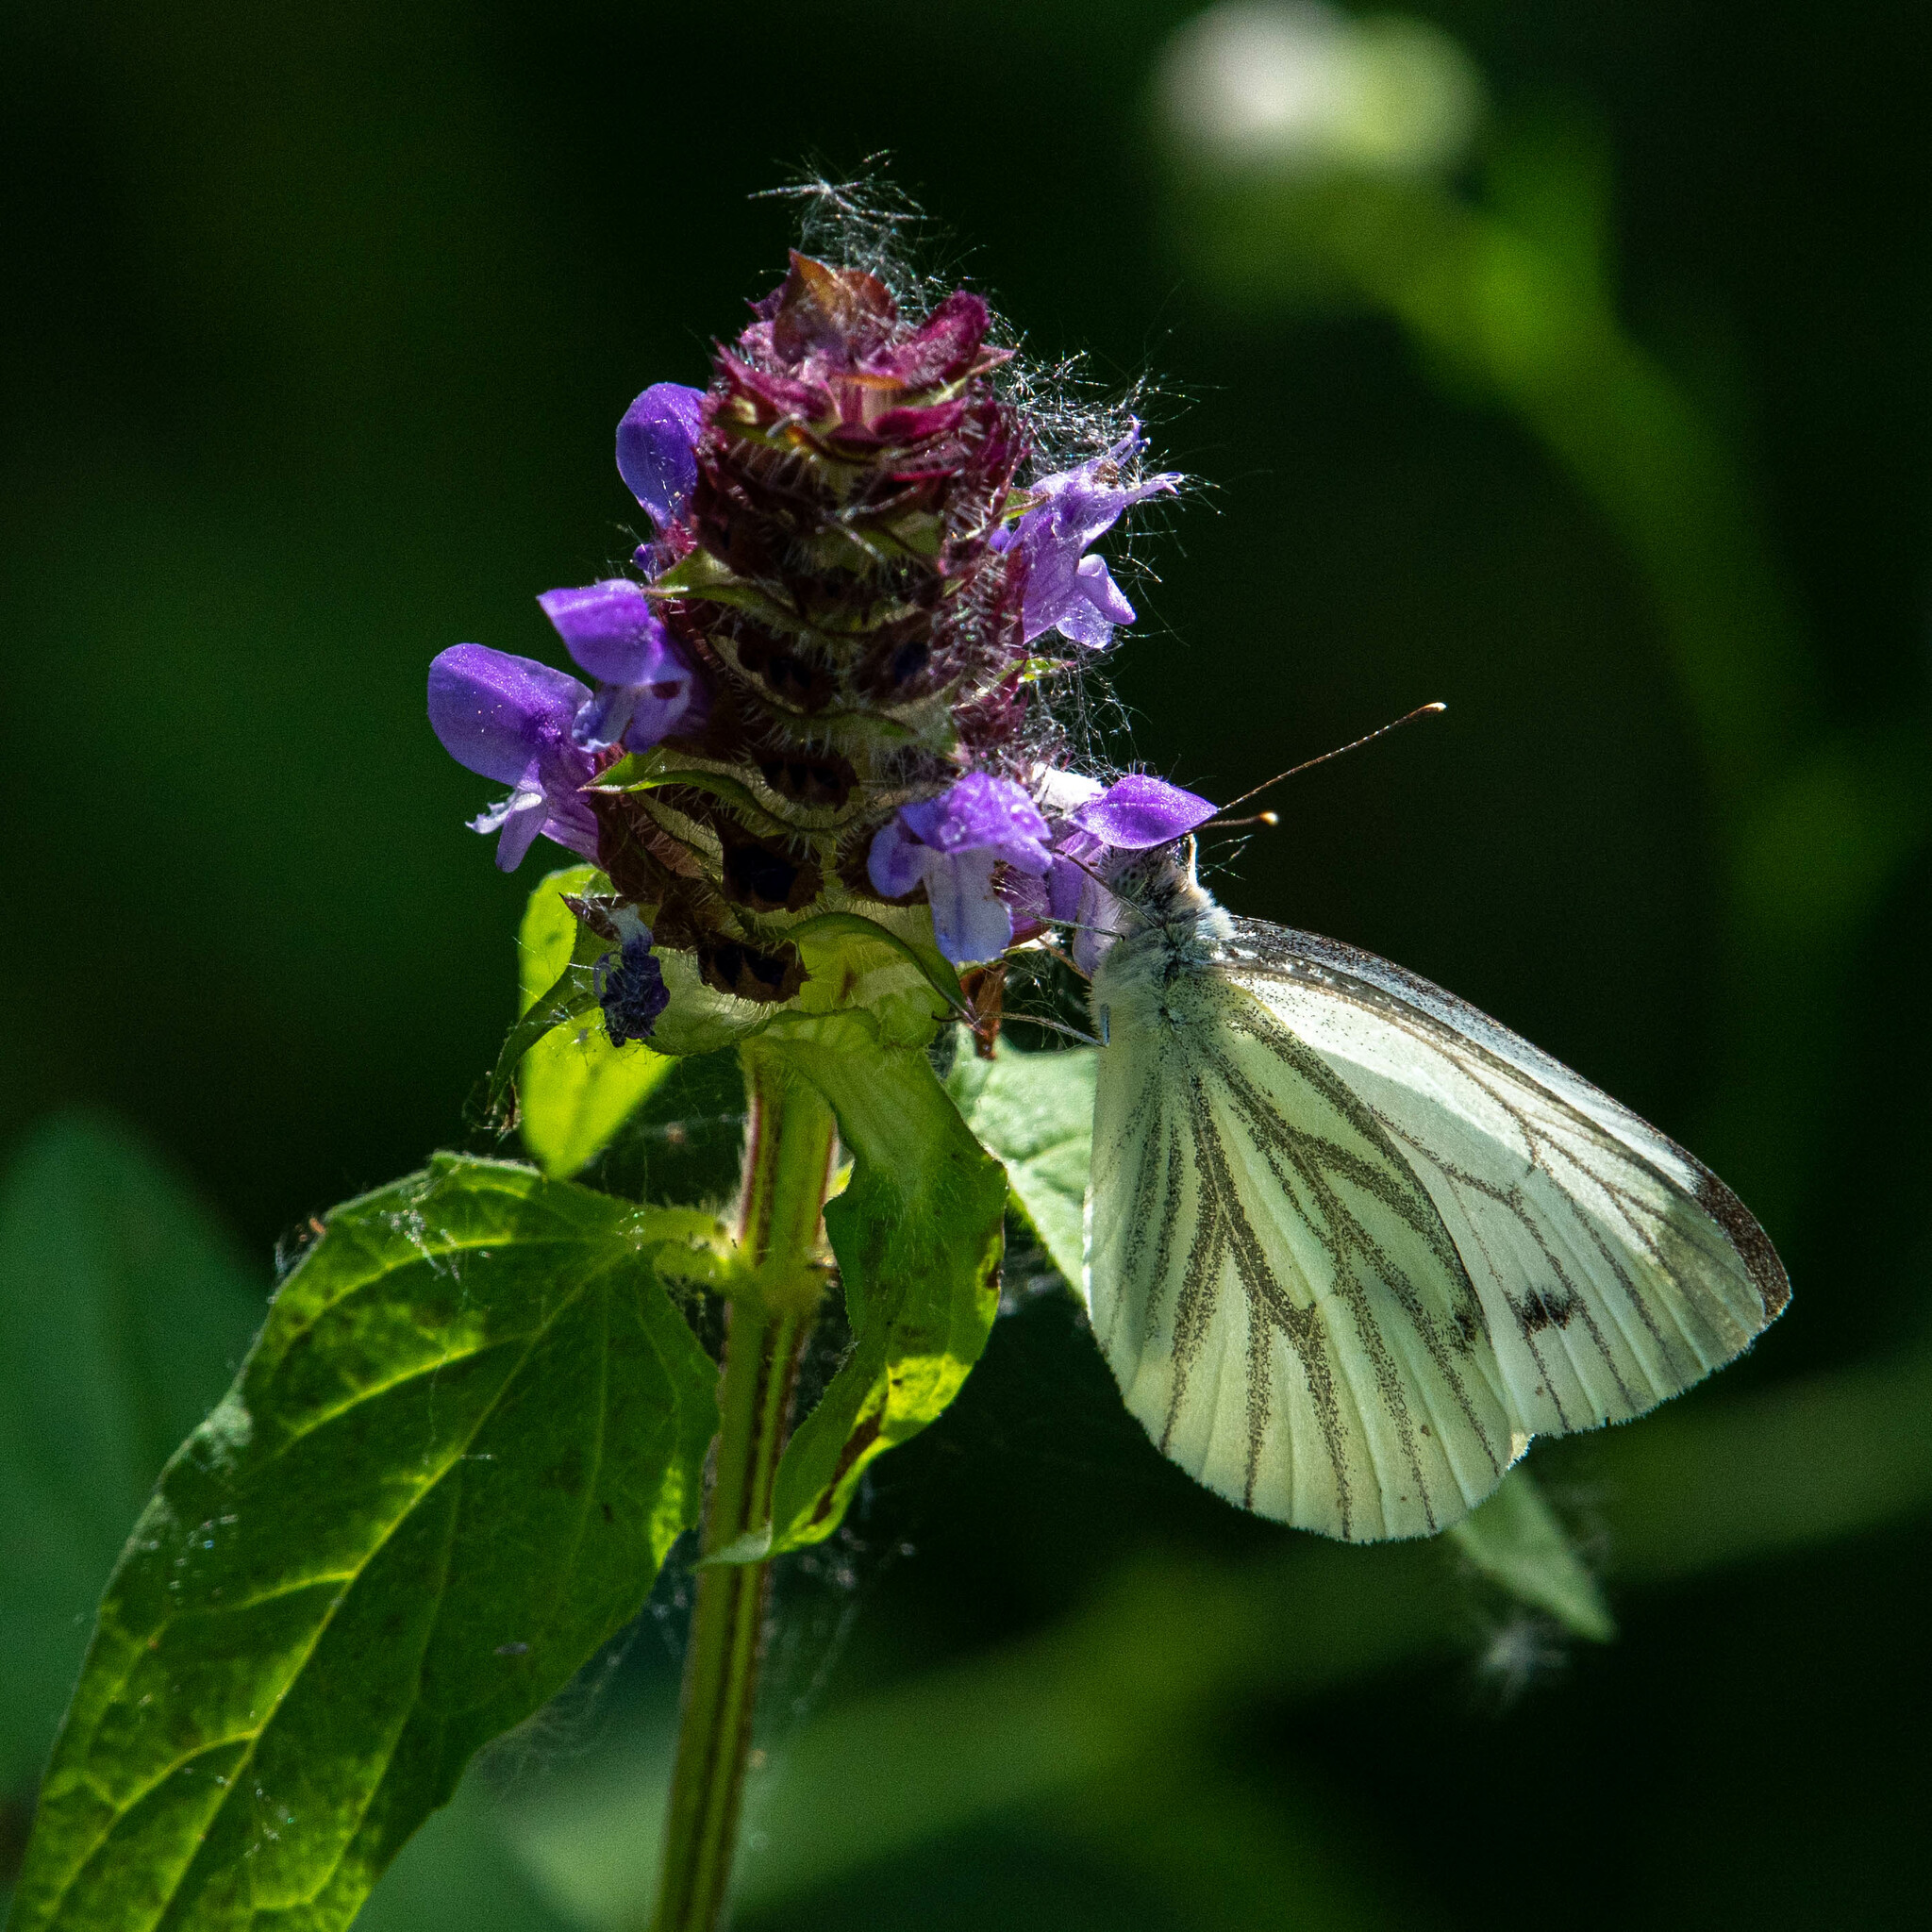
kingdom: Animalia
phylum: Arthropoda
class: Insecta
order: Lepidoptera
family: Pieridae
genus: Pieris
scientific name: Pieris napi
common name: Green-veined white
